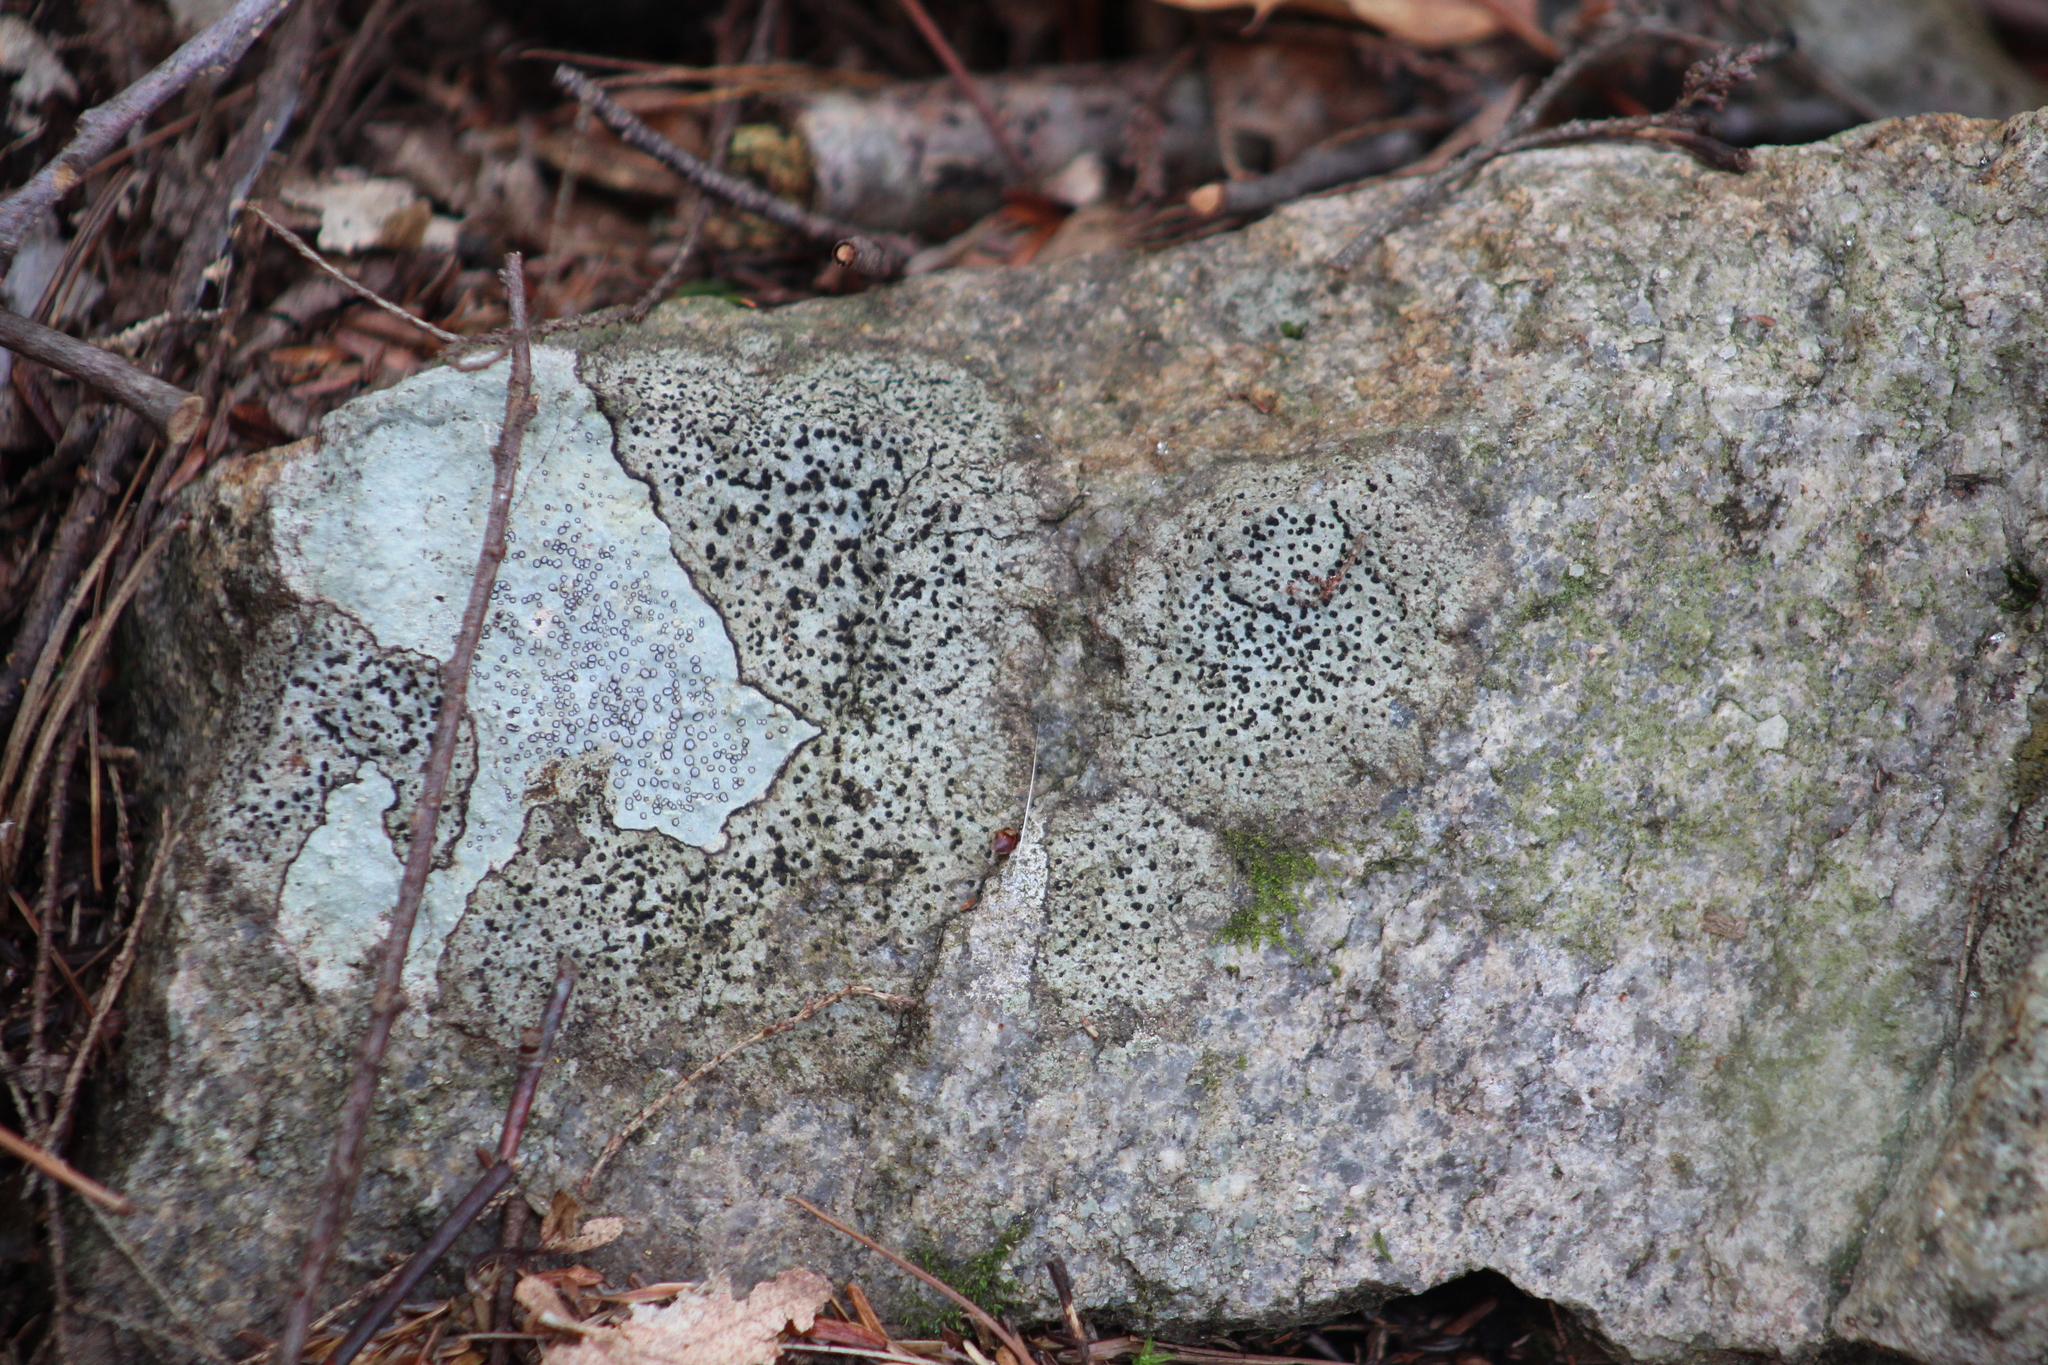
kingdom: Fungi
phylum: Ascomycota
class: Lecanoromycetes
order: Lecideales
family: Lecideaceae
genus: Porpidia
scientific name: Porpidia albocaerulescens
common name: Smokey-eyed boulder lichen
